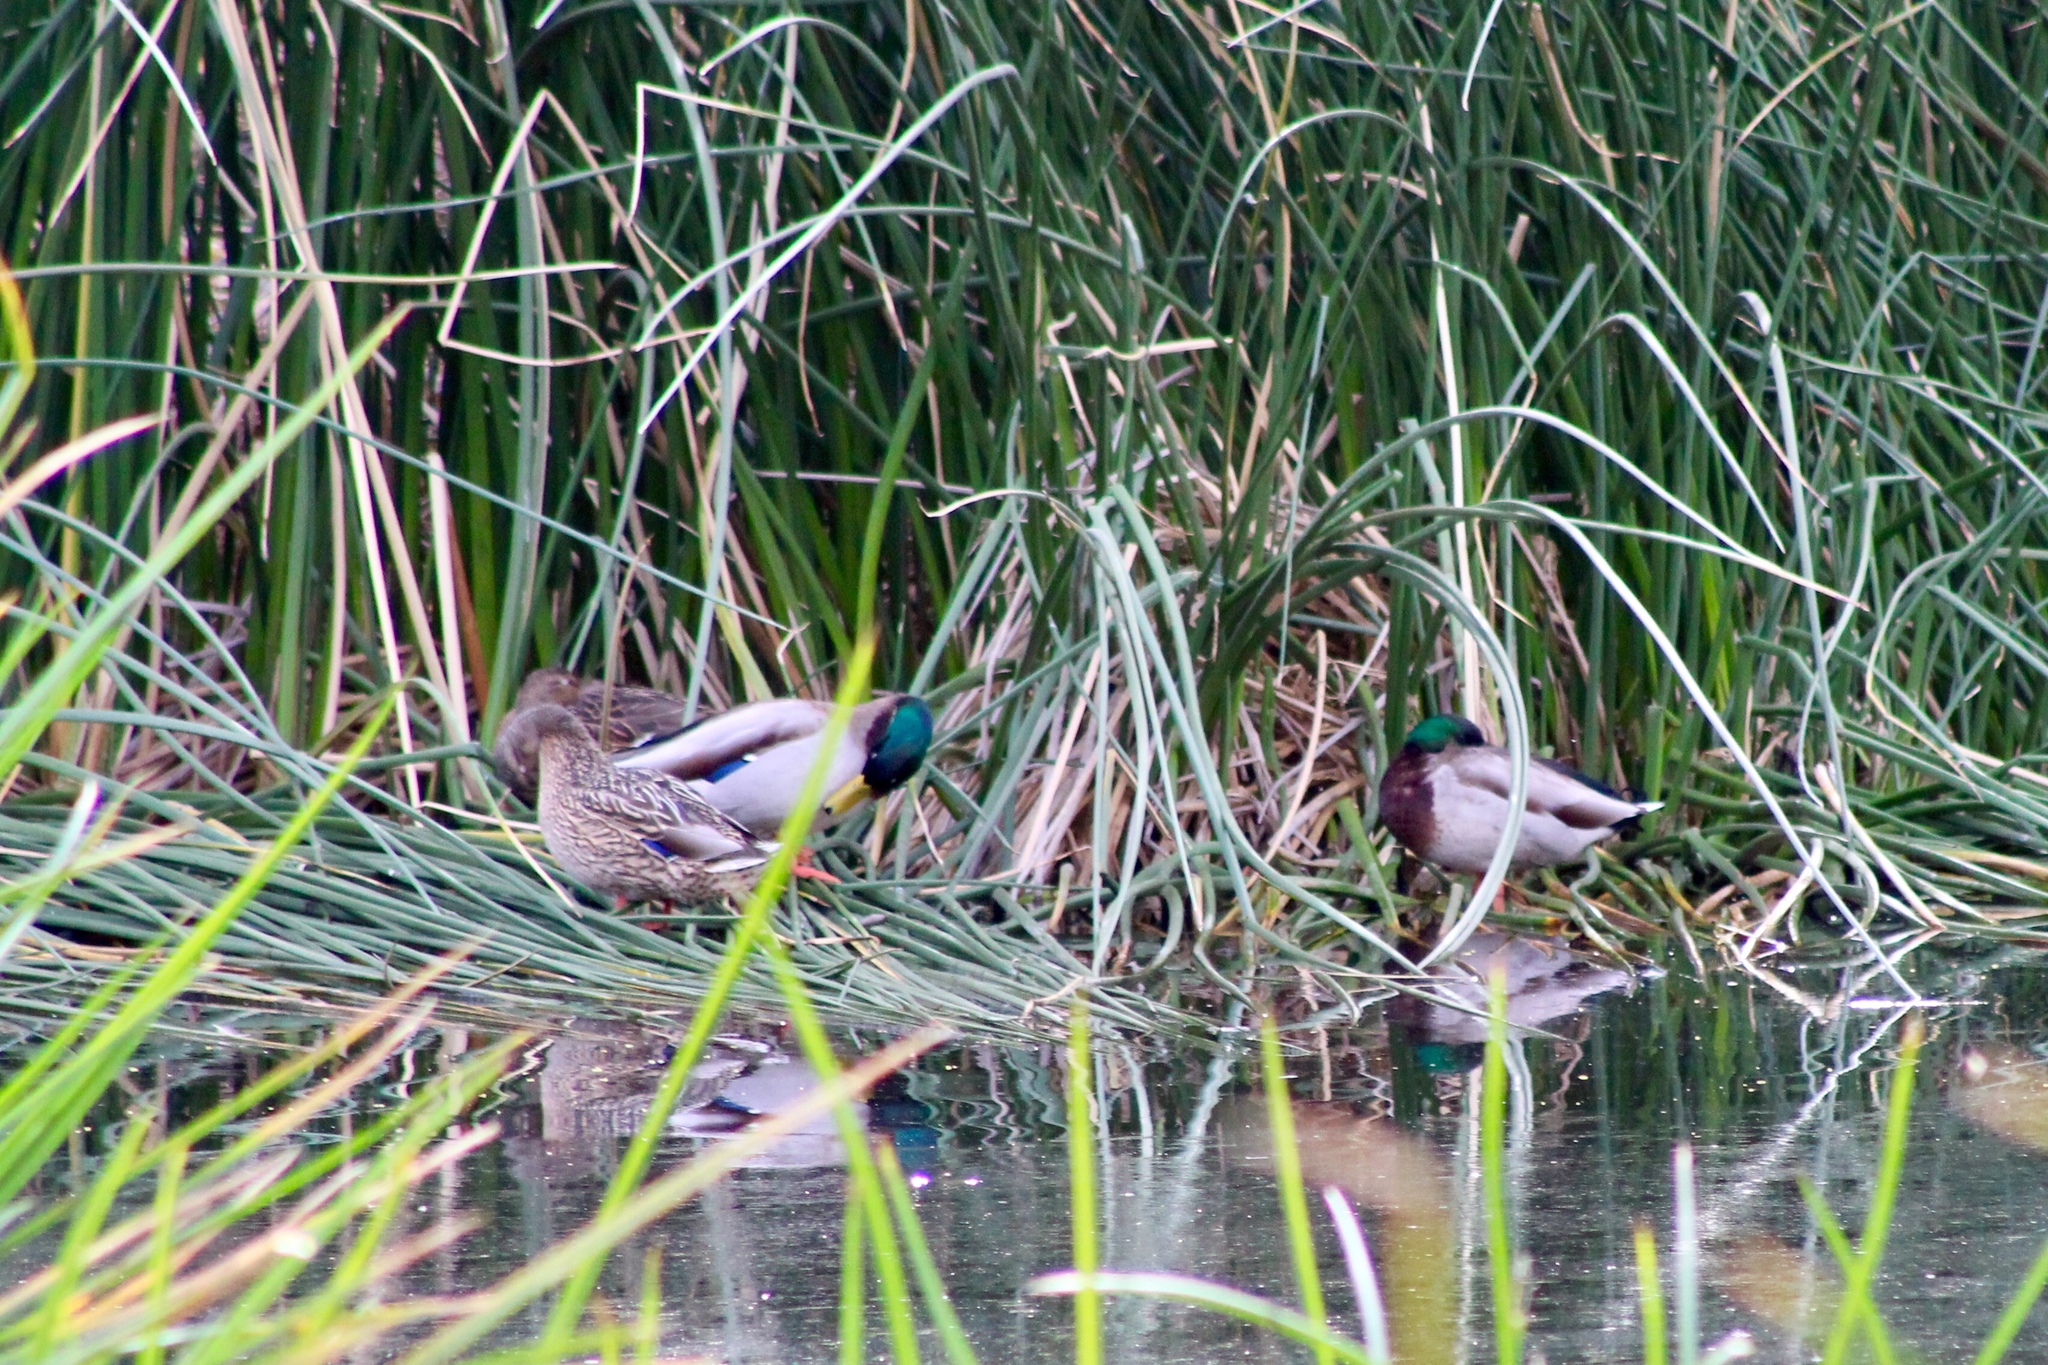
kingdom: Animalia
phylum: Chordata
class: Aves
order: Anseriformes
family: Anatidae
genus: Anas
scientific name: Anas platyrhynchos
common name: Mallard
